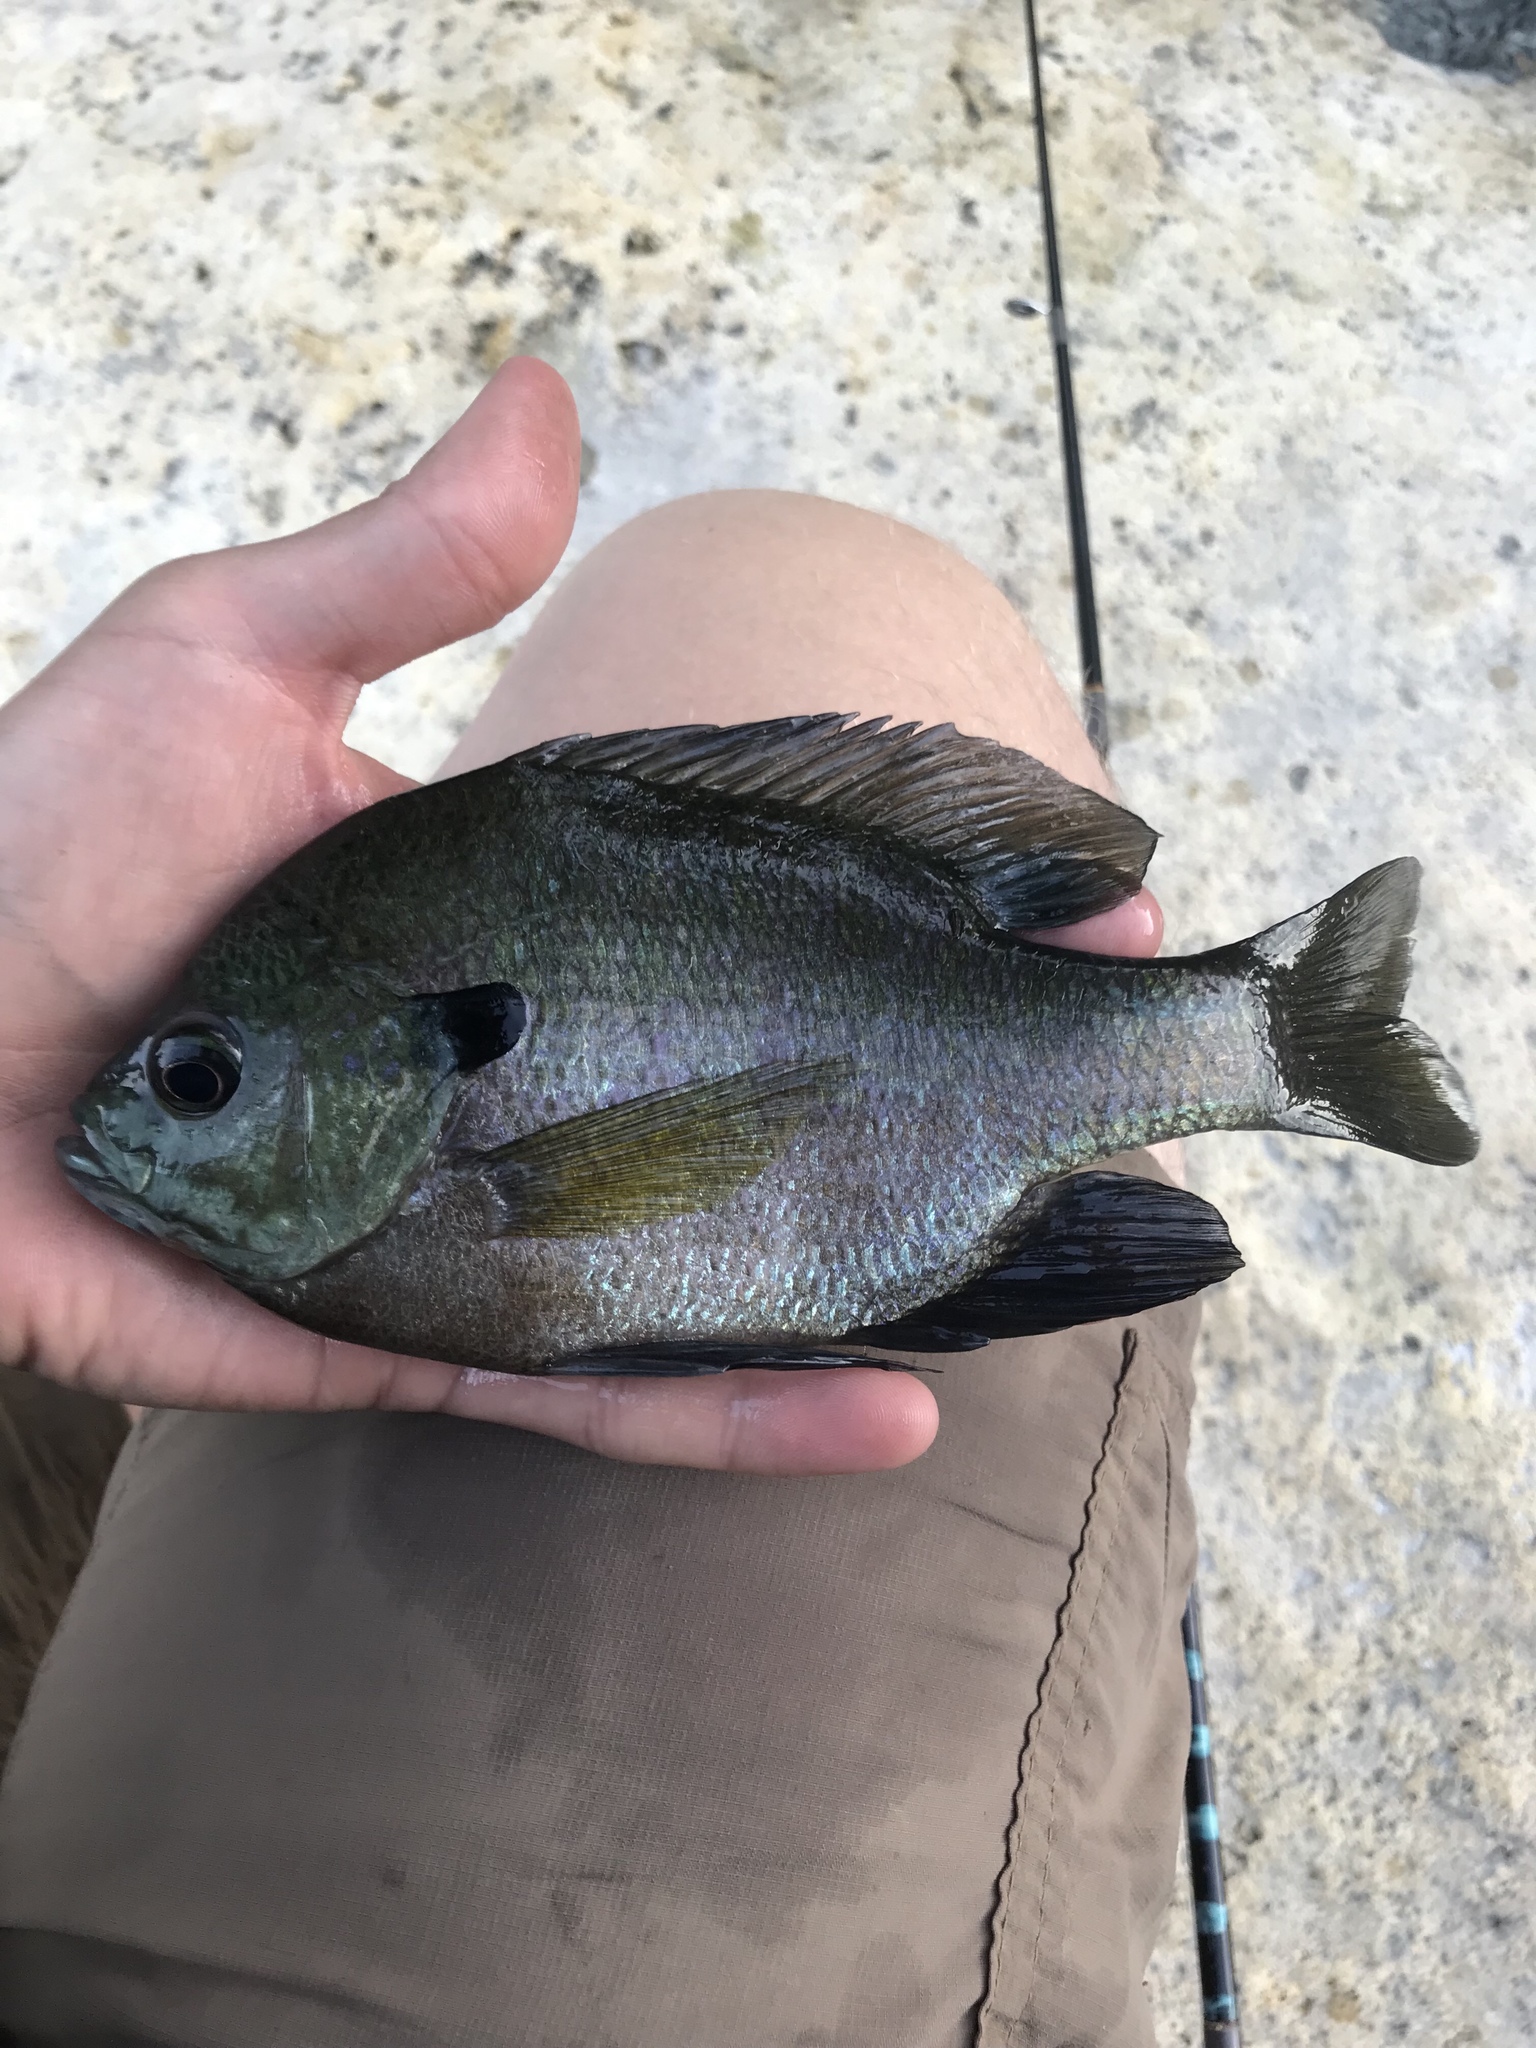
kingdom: Animalia
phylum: Chordata
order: Perciformes
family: Centrarchidae
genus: Lepomis
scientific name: Lepomis macrochirus
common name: Bluegill
